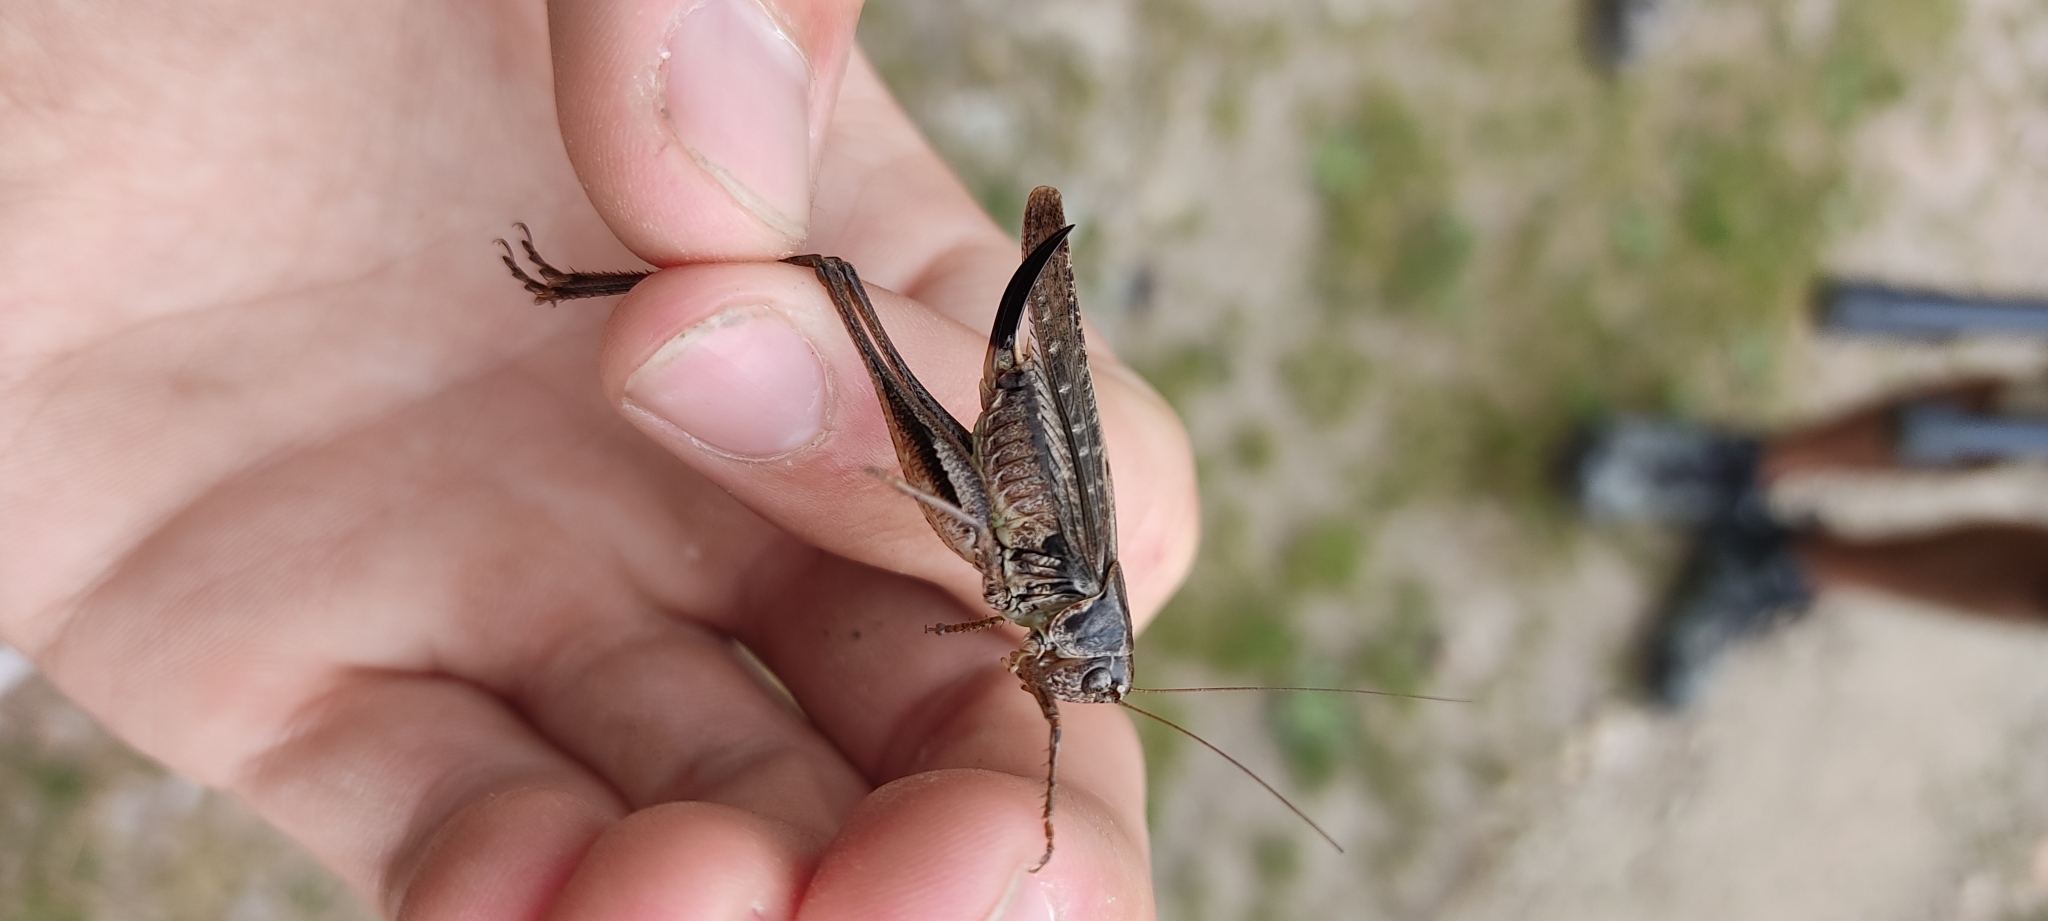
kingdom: Animalia
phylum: Arthropoda
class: Insecta
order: Orthoptera
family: Tettigoniidae
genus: Platycleis
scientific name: Platycleis albopunctata
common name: Grey bush-cricket
